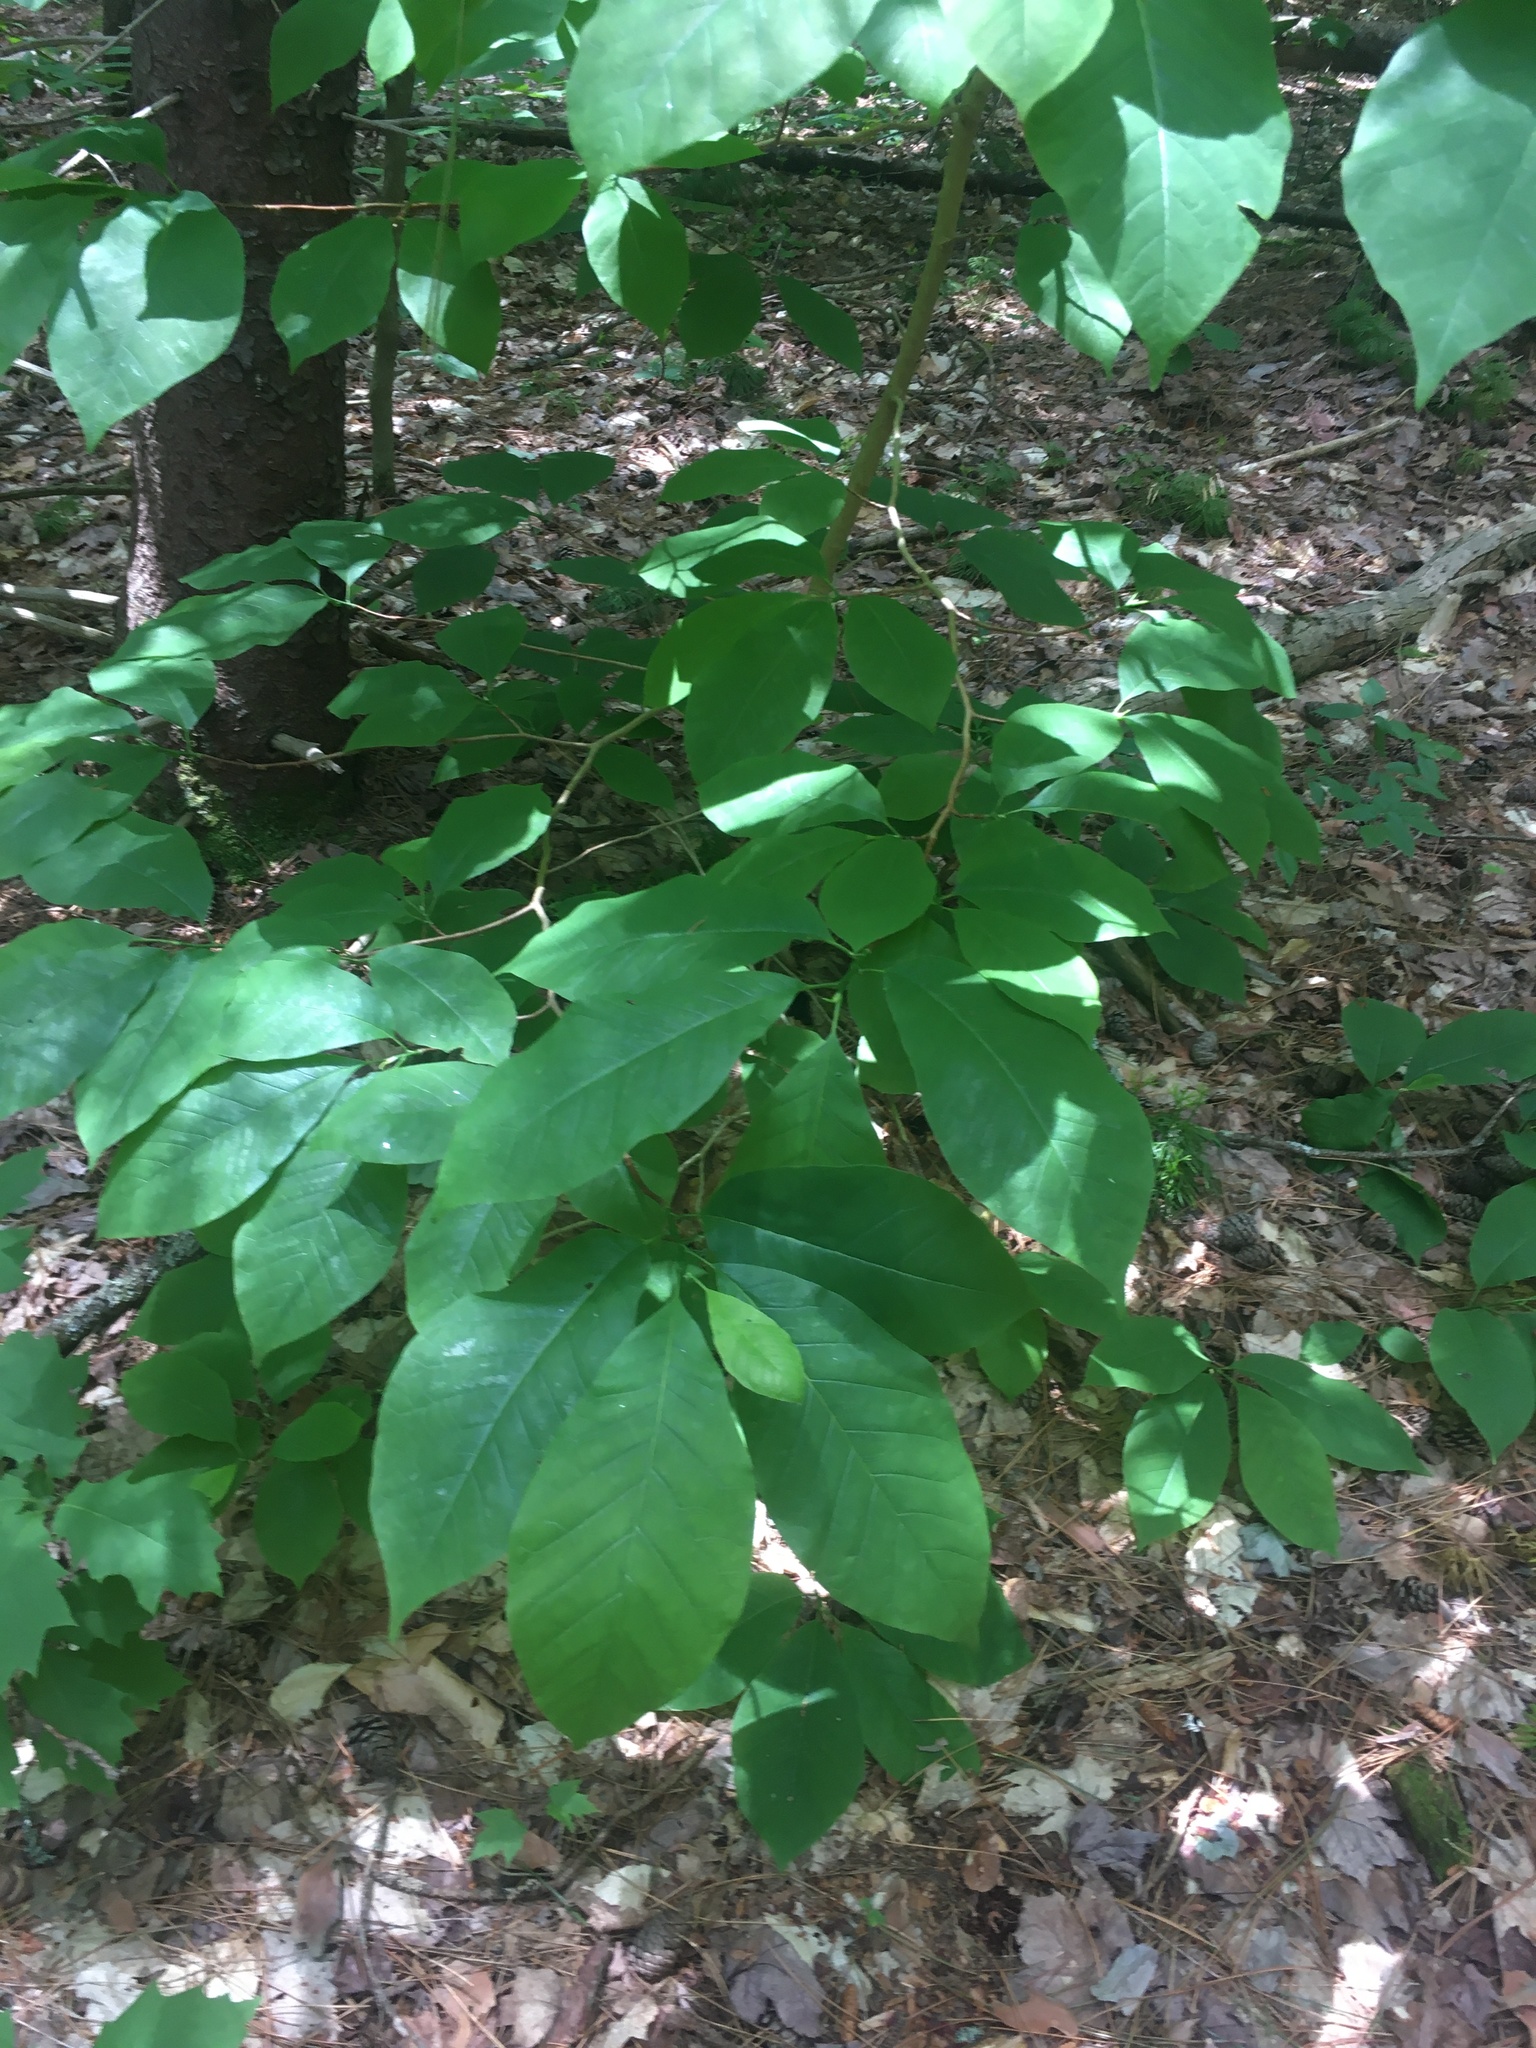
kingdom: Plantae
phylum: Tracheophyta
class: Magnoliopsida
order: Magnoliales
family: Magnoliaceae
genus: Magnolia
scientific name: Magnolia acuminata
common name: Cucumber magnolia
